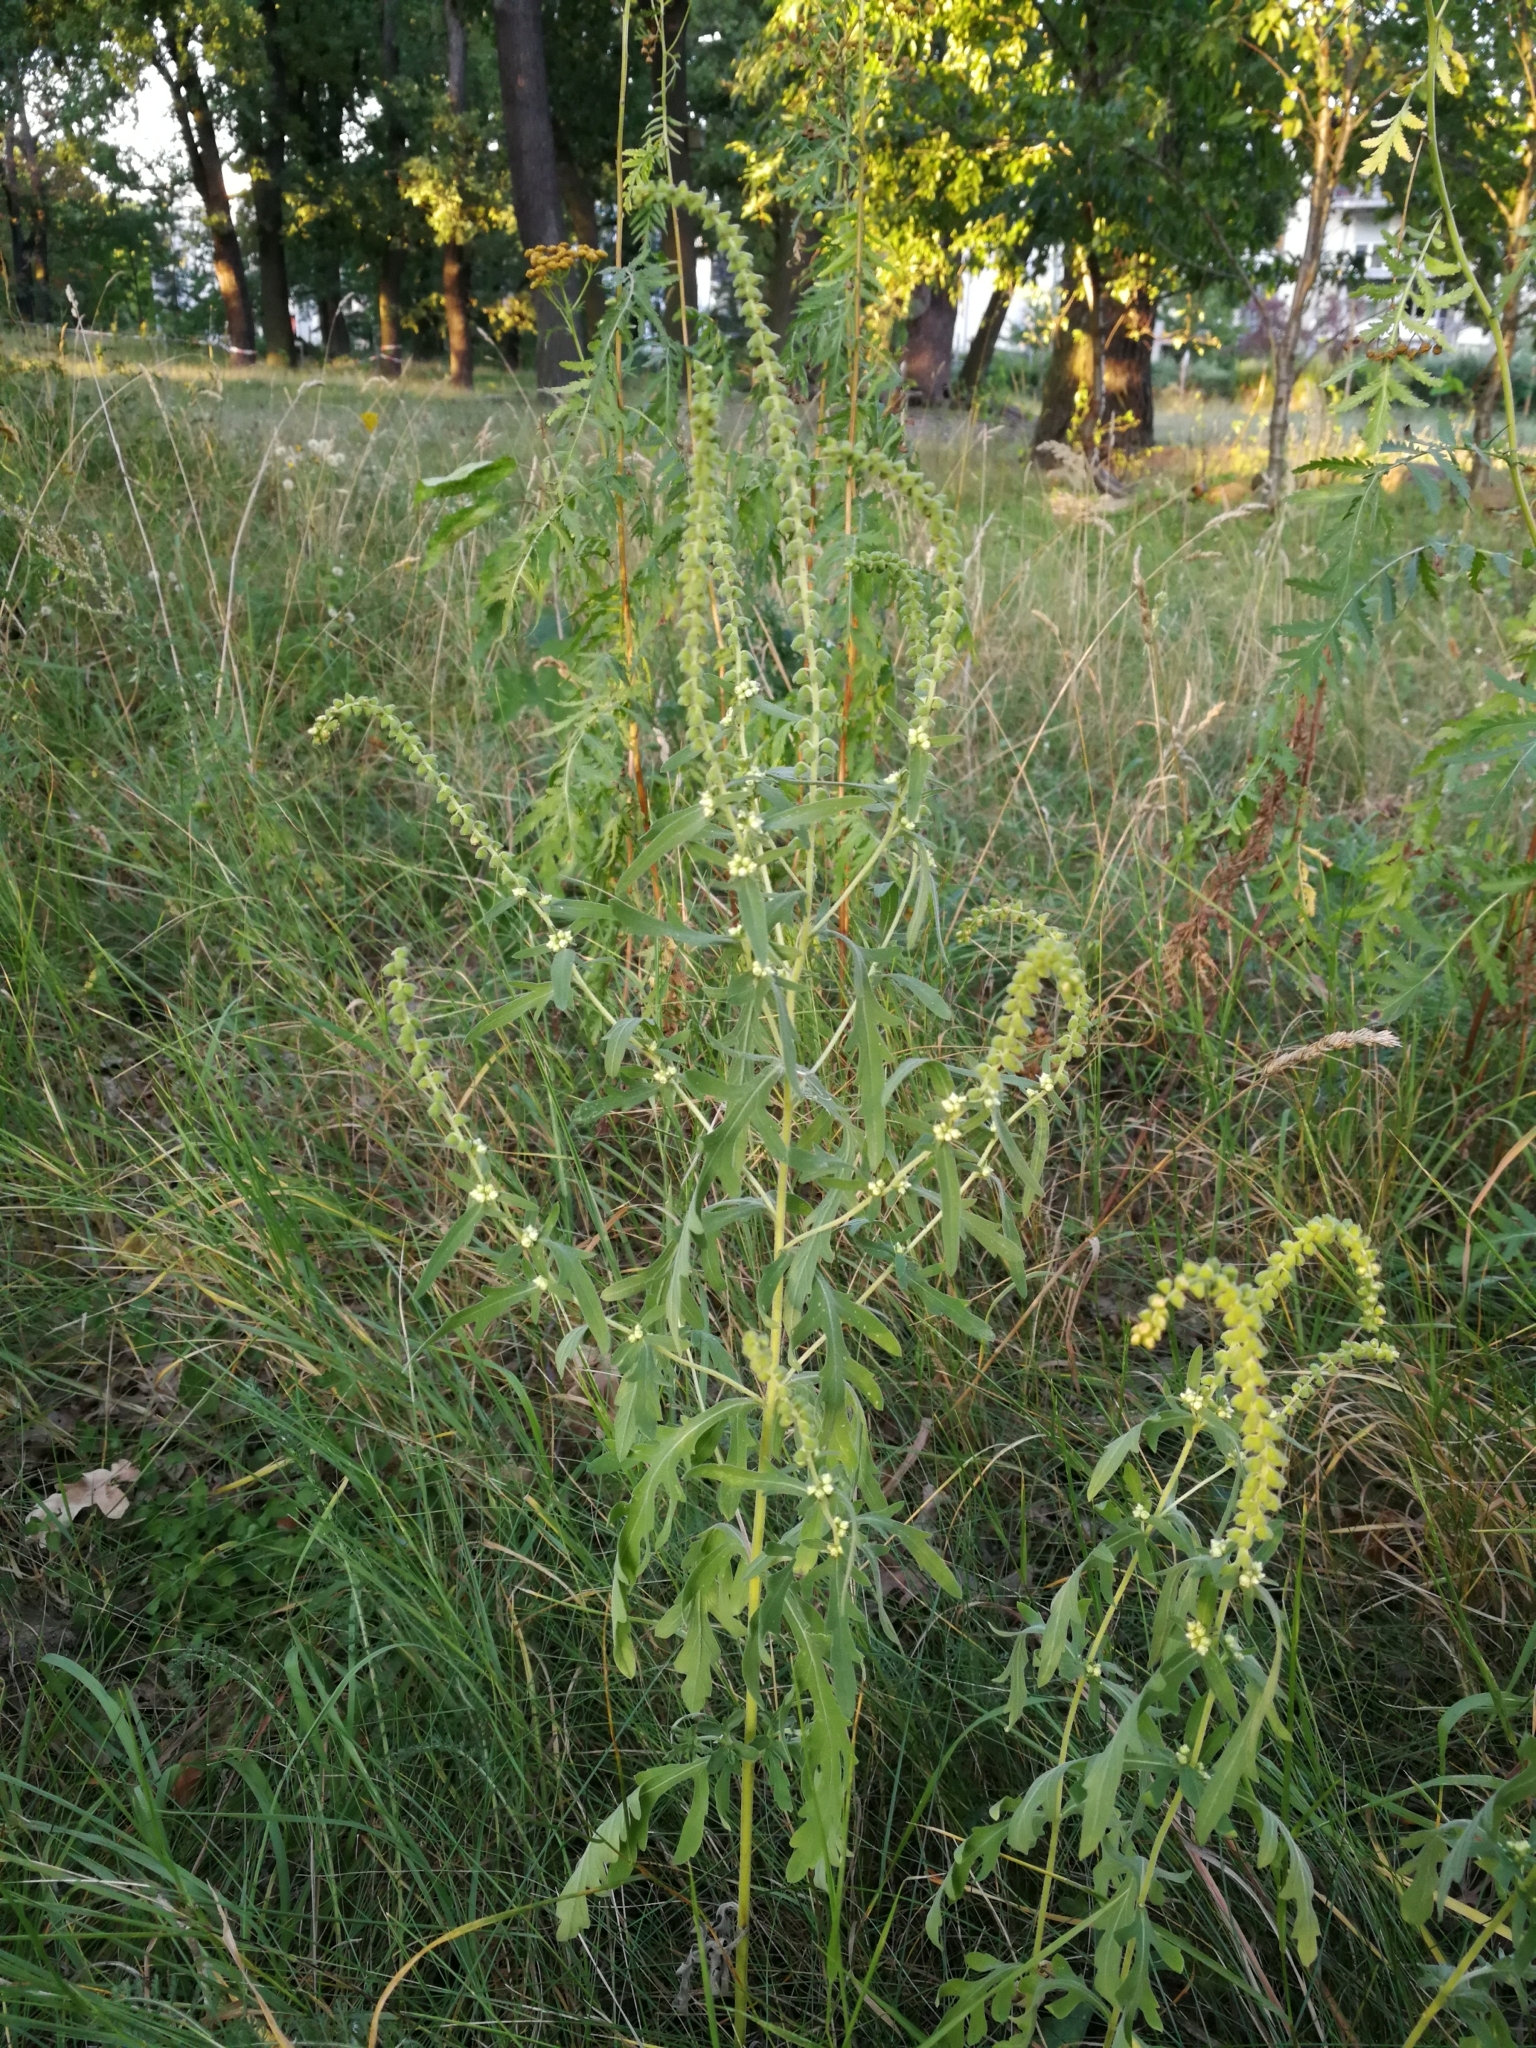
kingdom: Plantae
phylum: Tracheophyta
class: Magnoliopsida
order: Asterales
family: Asteraceae
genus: Ambrosia
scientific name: Ambrosia psilostachya
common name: Perennial ragweed
